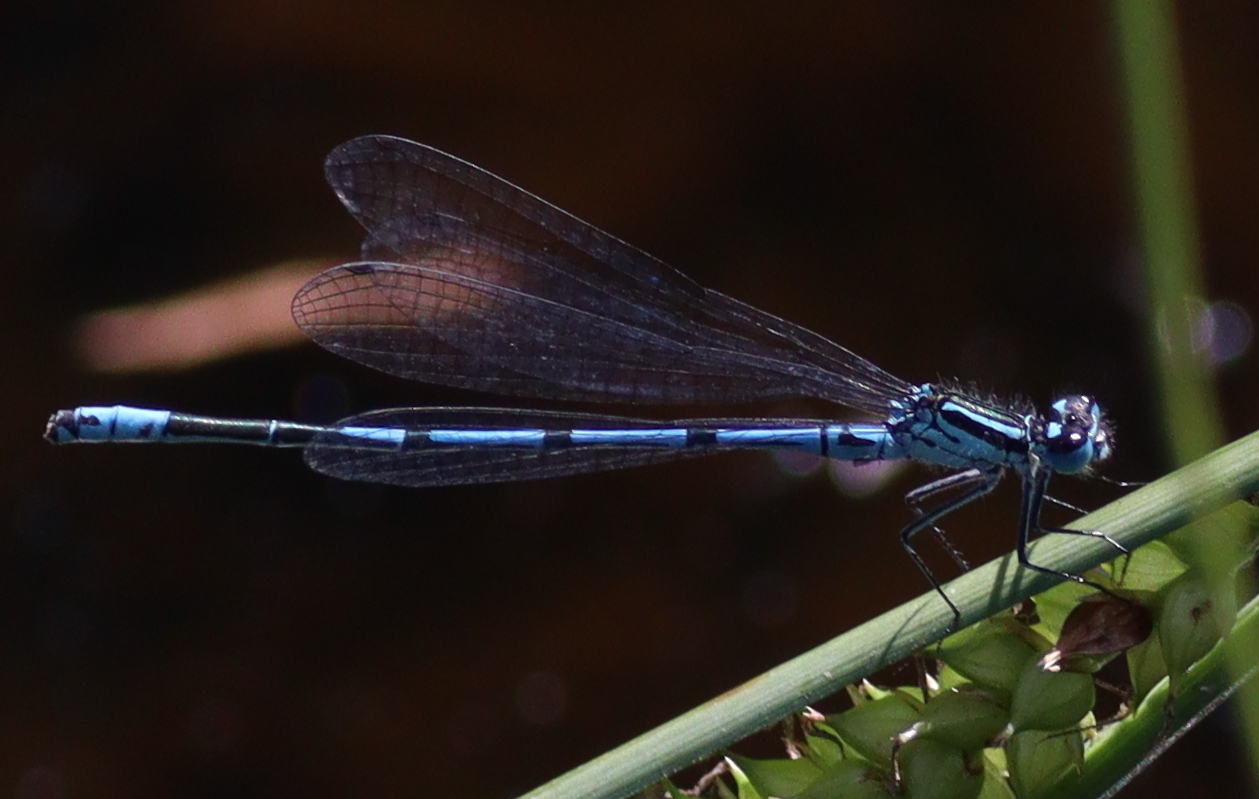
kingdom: Animalia
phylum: Arthropoda
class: Insecta
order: Odonata
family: Coenagrionidae
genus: Coenagrion
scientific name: Coenagrion puella
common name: Azure damselfly
